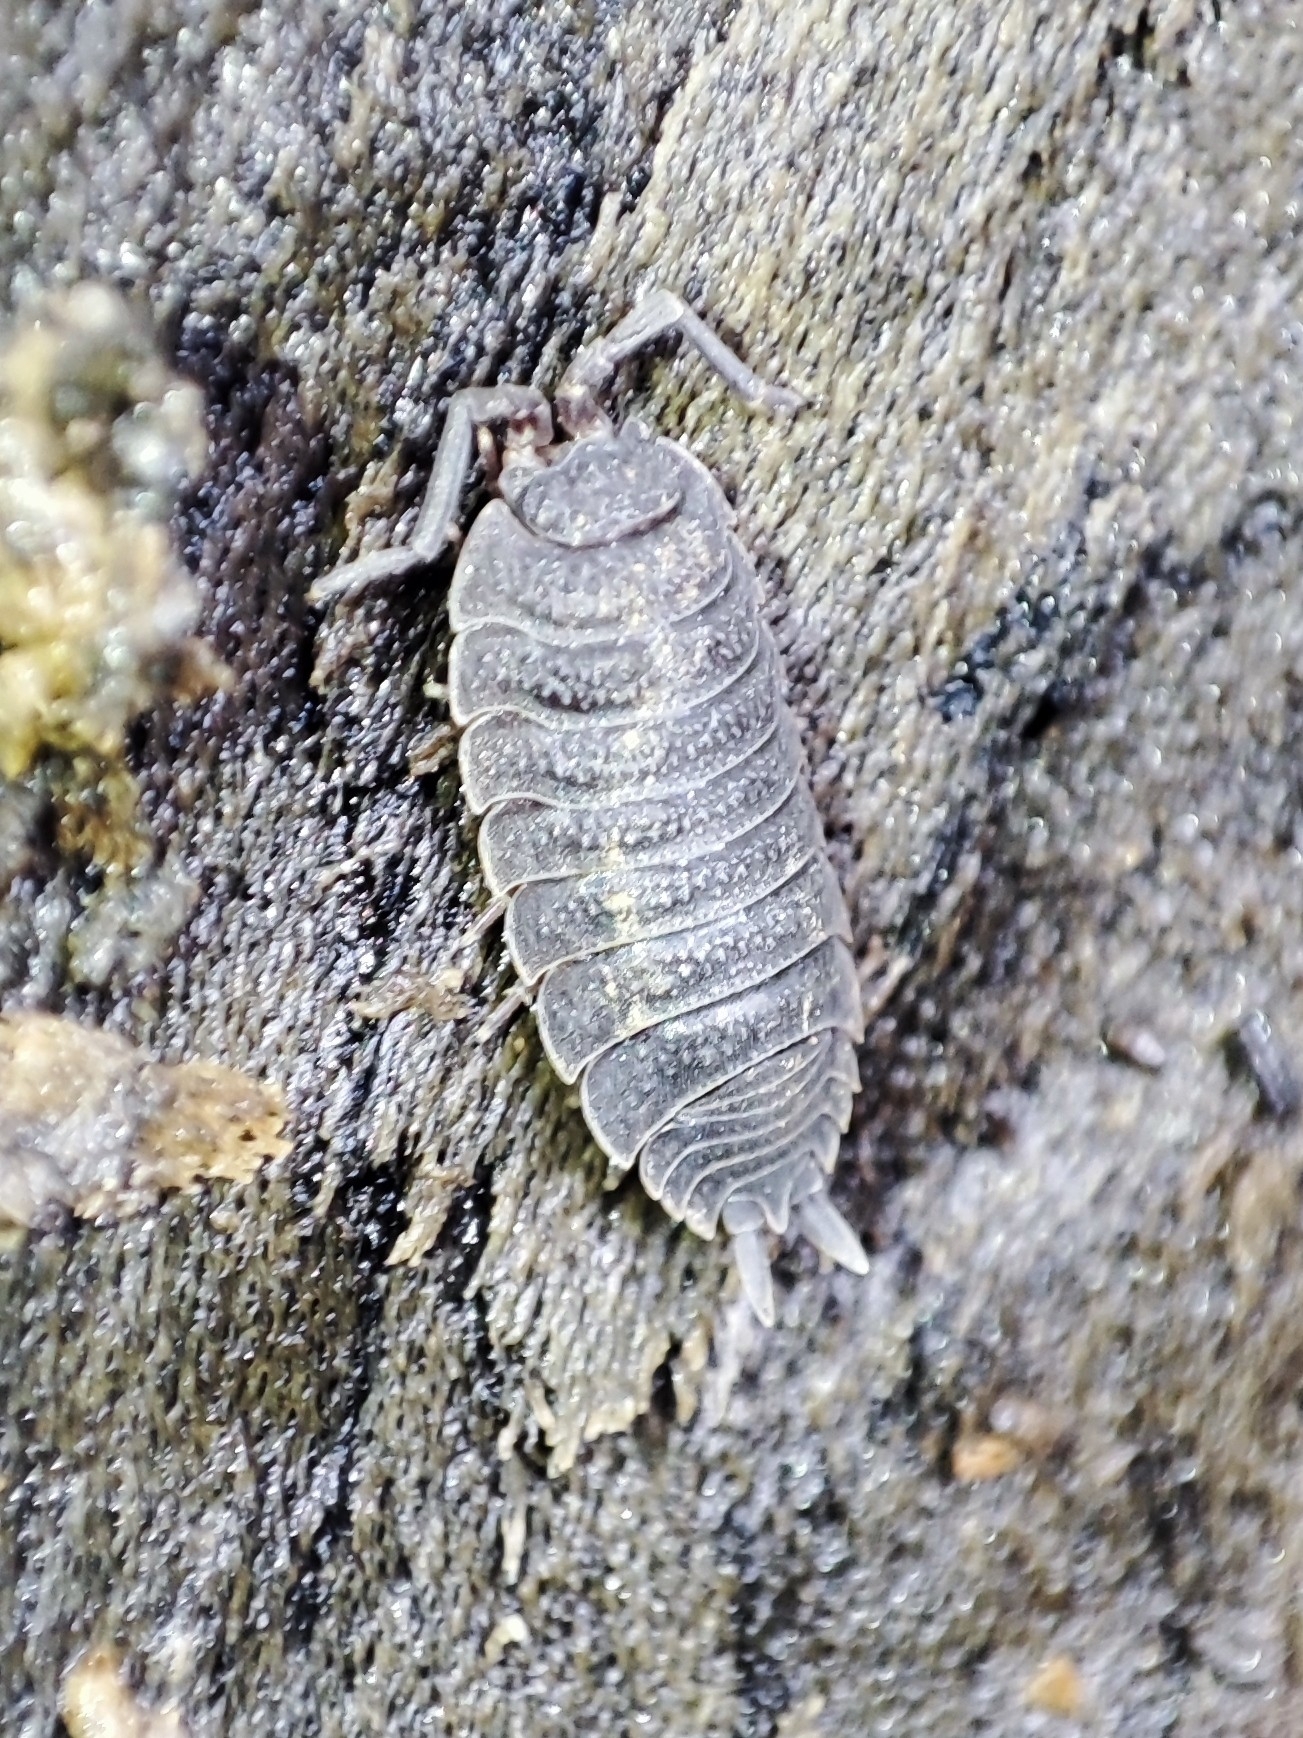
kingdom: Animalia
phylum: Arthropoda
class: Malacostraca
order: Isopoda
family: Porcellionidae
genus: Porcellio
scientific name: Porcellio scaber
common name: Common rough woodlouse
